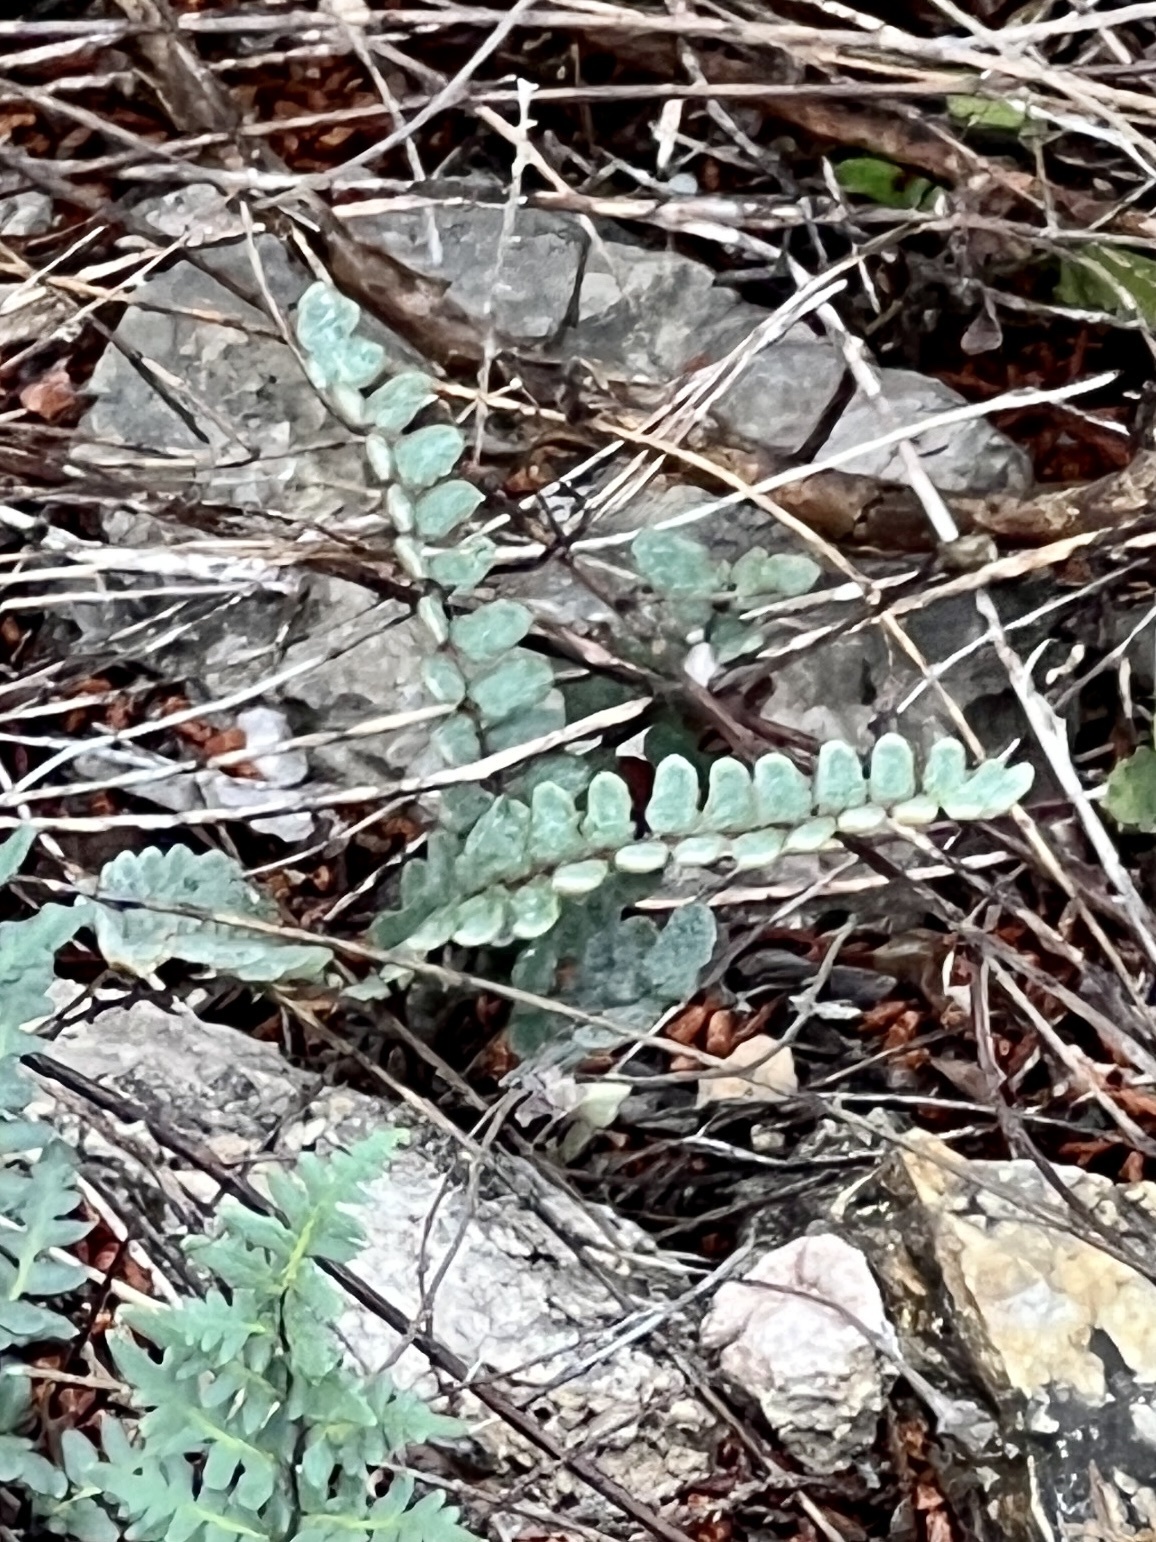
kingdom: Plantae
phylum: Tracheophyta
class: Polypodiopsida
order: Polypodiales
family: Pteridaceae
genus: Astrolepis
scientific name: Astrolepis integerrima
